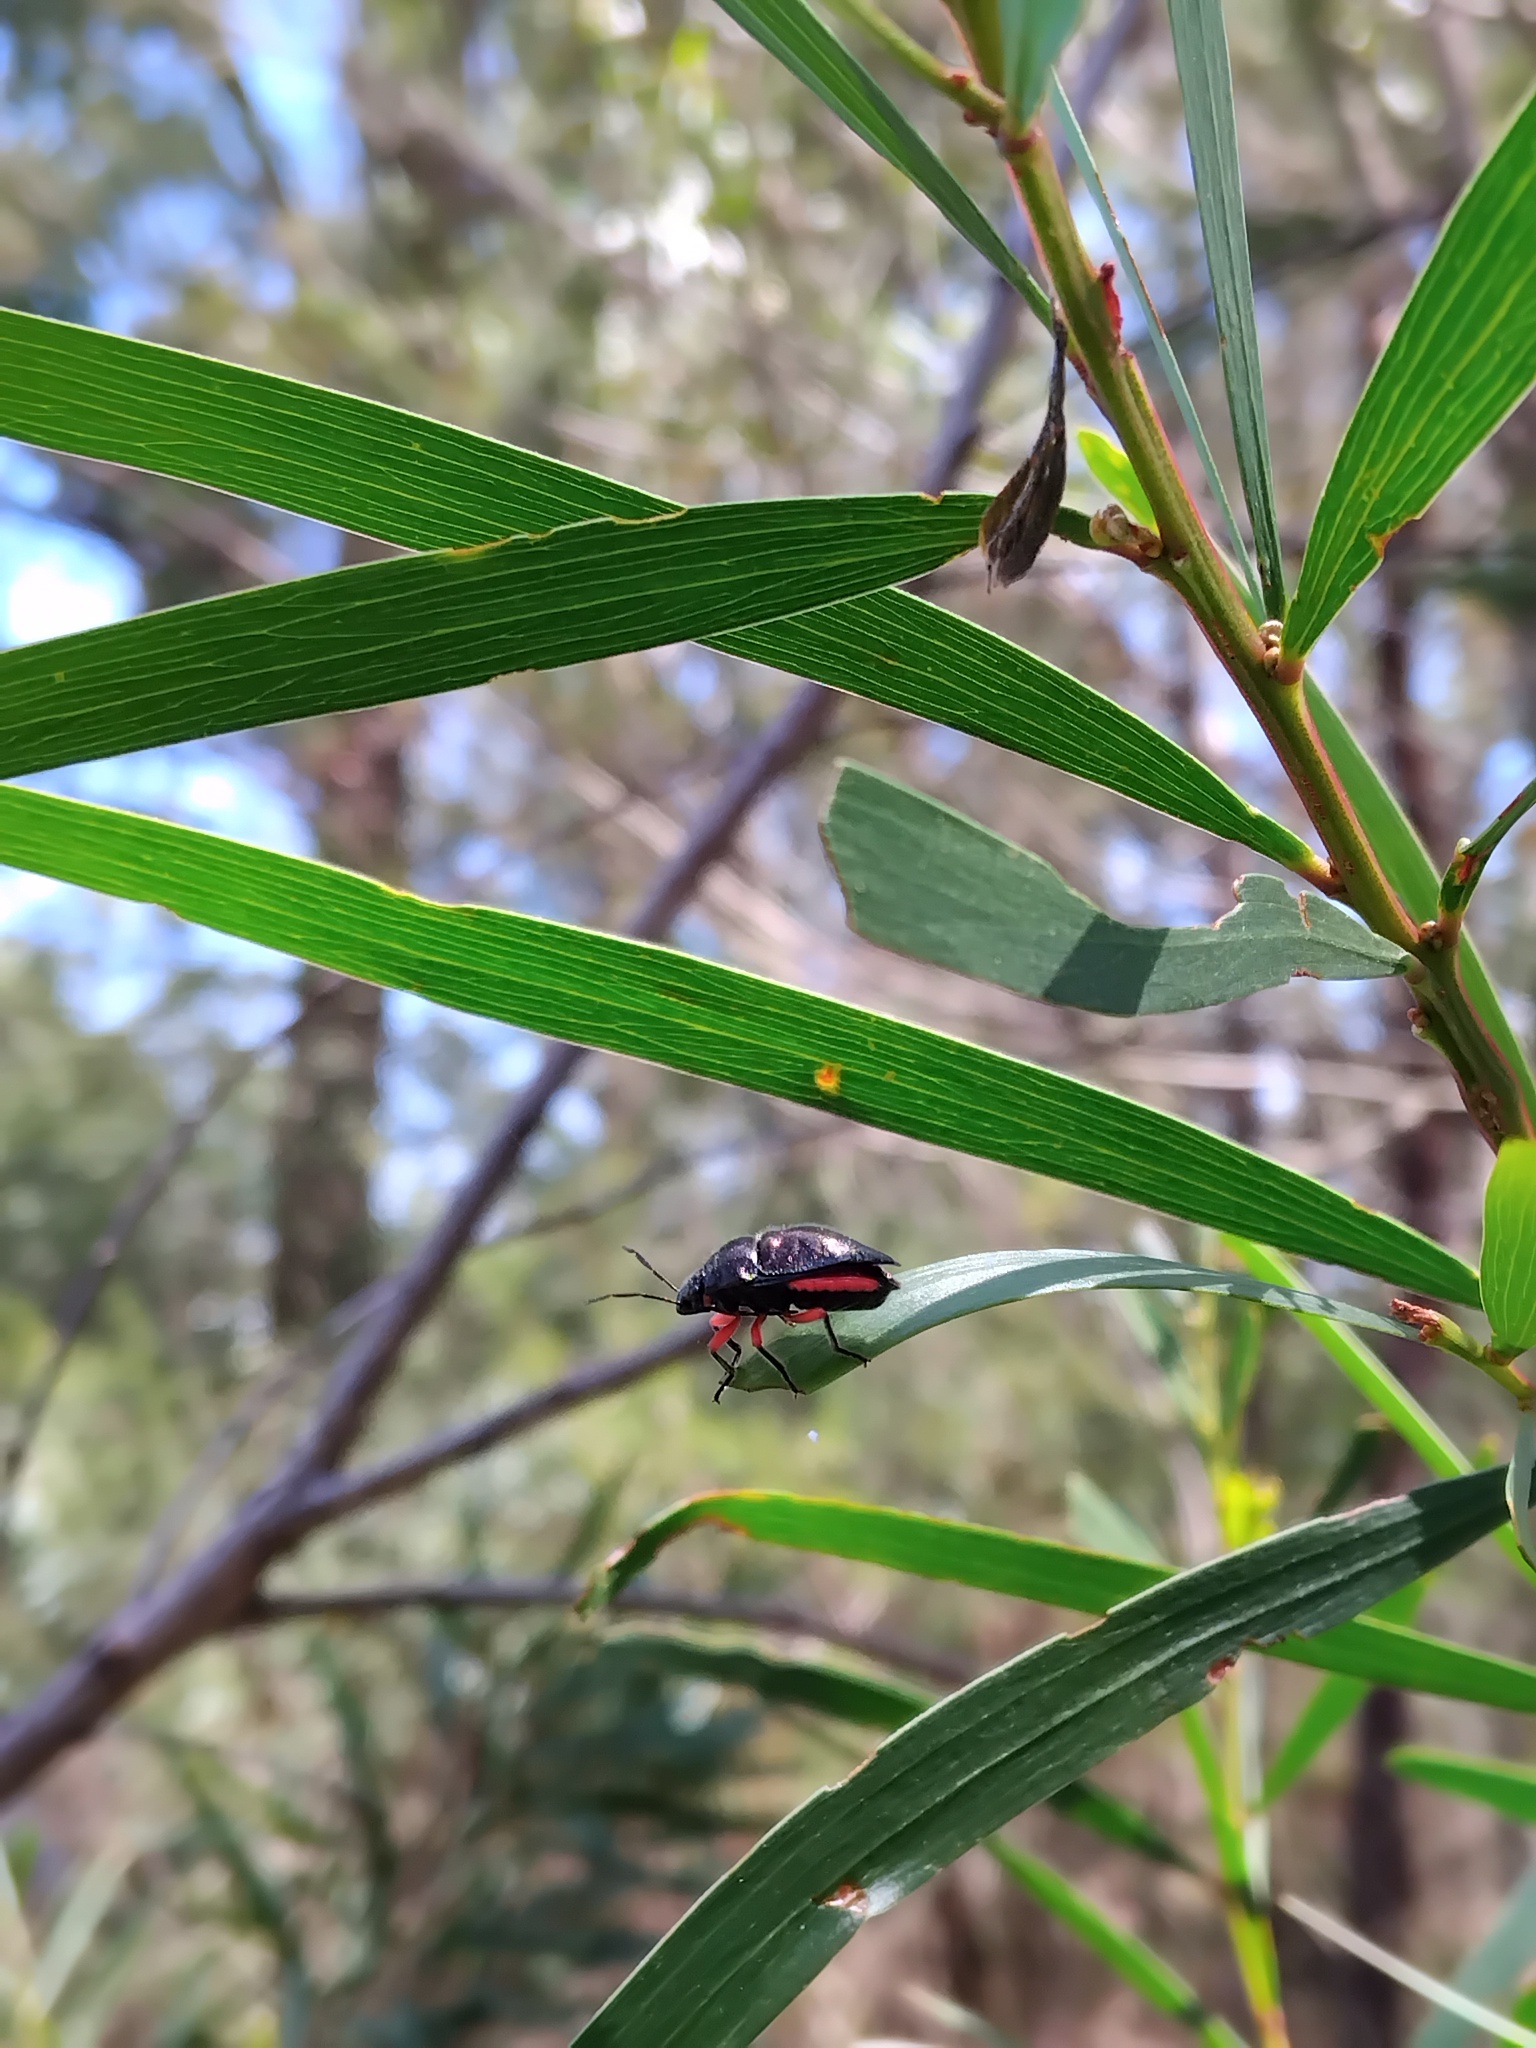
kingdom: Animalia
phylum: Arthropoda
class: Insecta
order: Hemiptera
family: Scutelleridae
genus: Lampromicra
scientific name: Lampromicra
